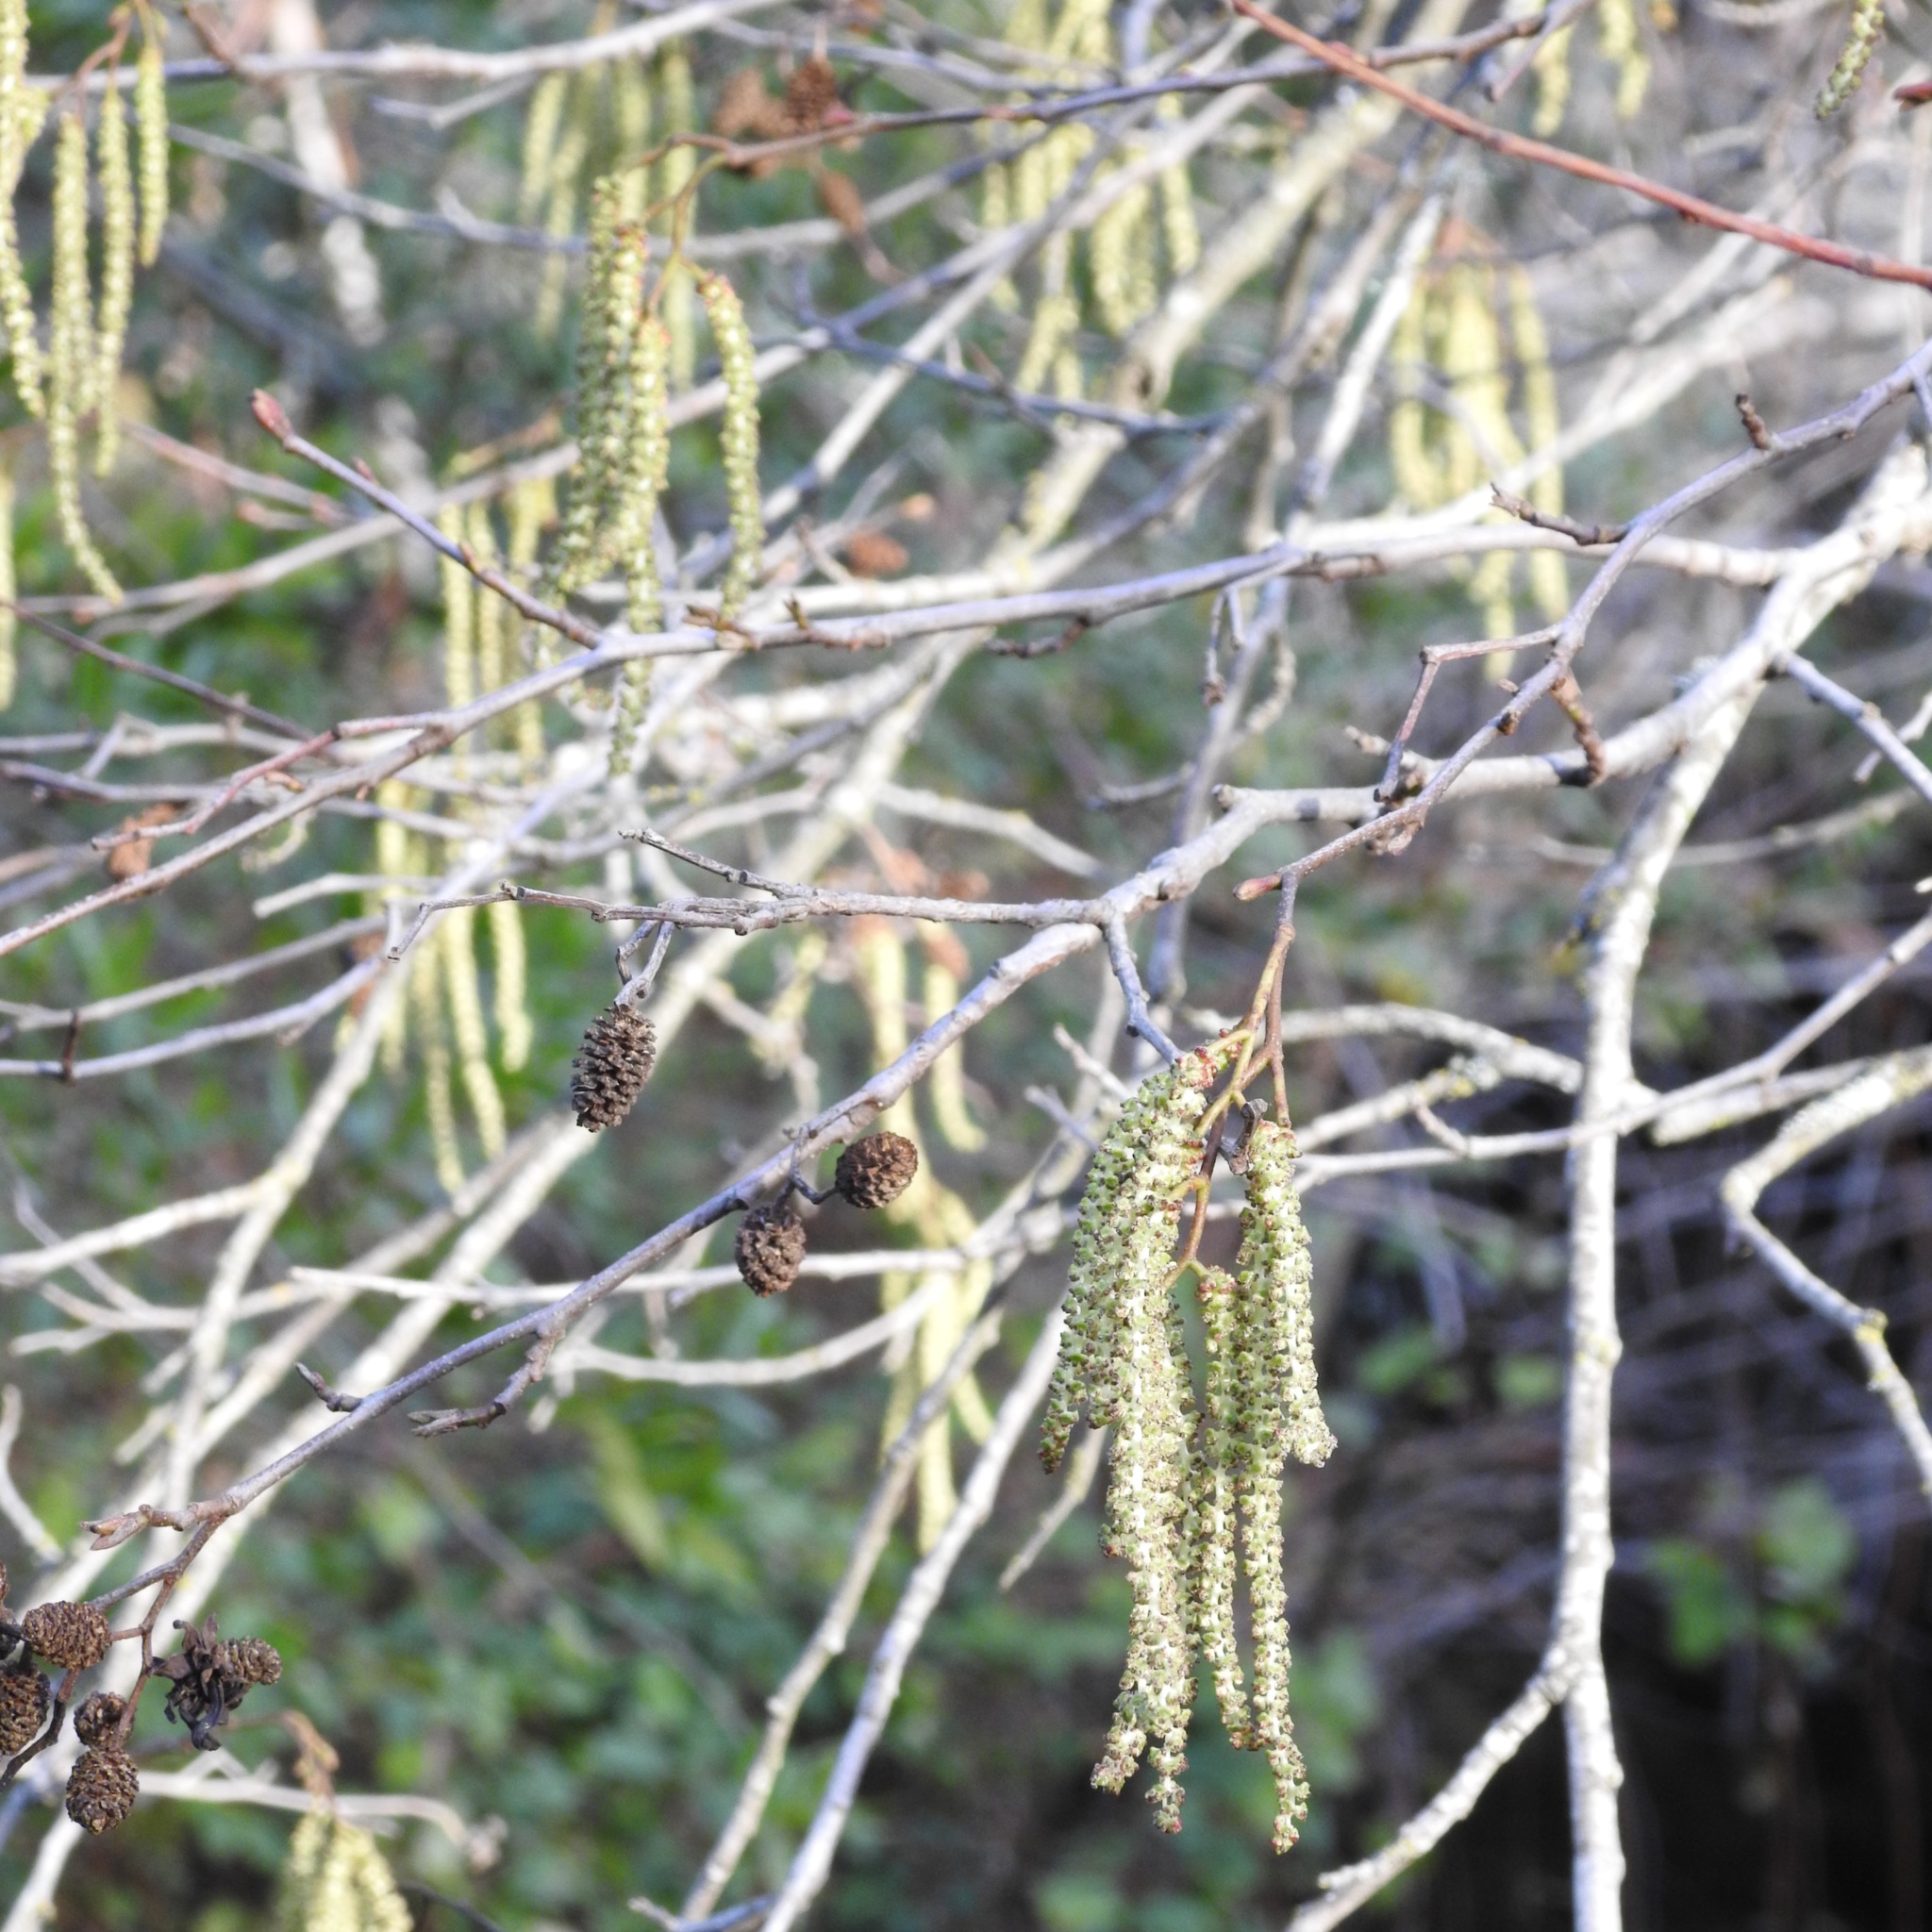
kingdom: Plantae
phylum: Tracheophyta
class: Magnoliopsida
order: Fagales
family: Betulaceae
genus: Alnus
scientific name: Alnus rhombifolia
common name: California alder
